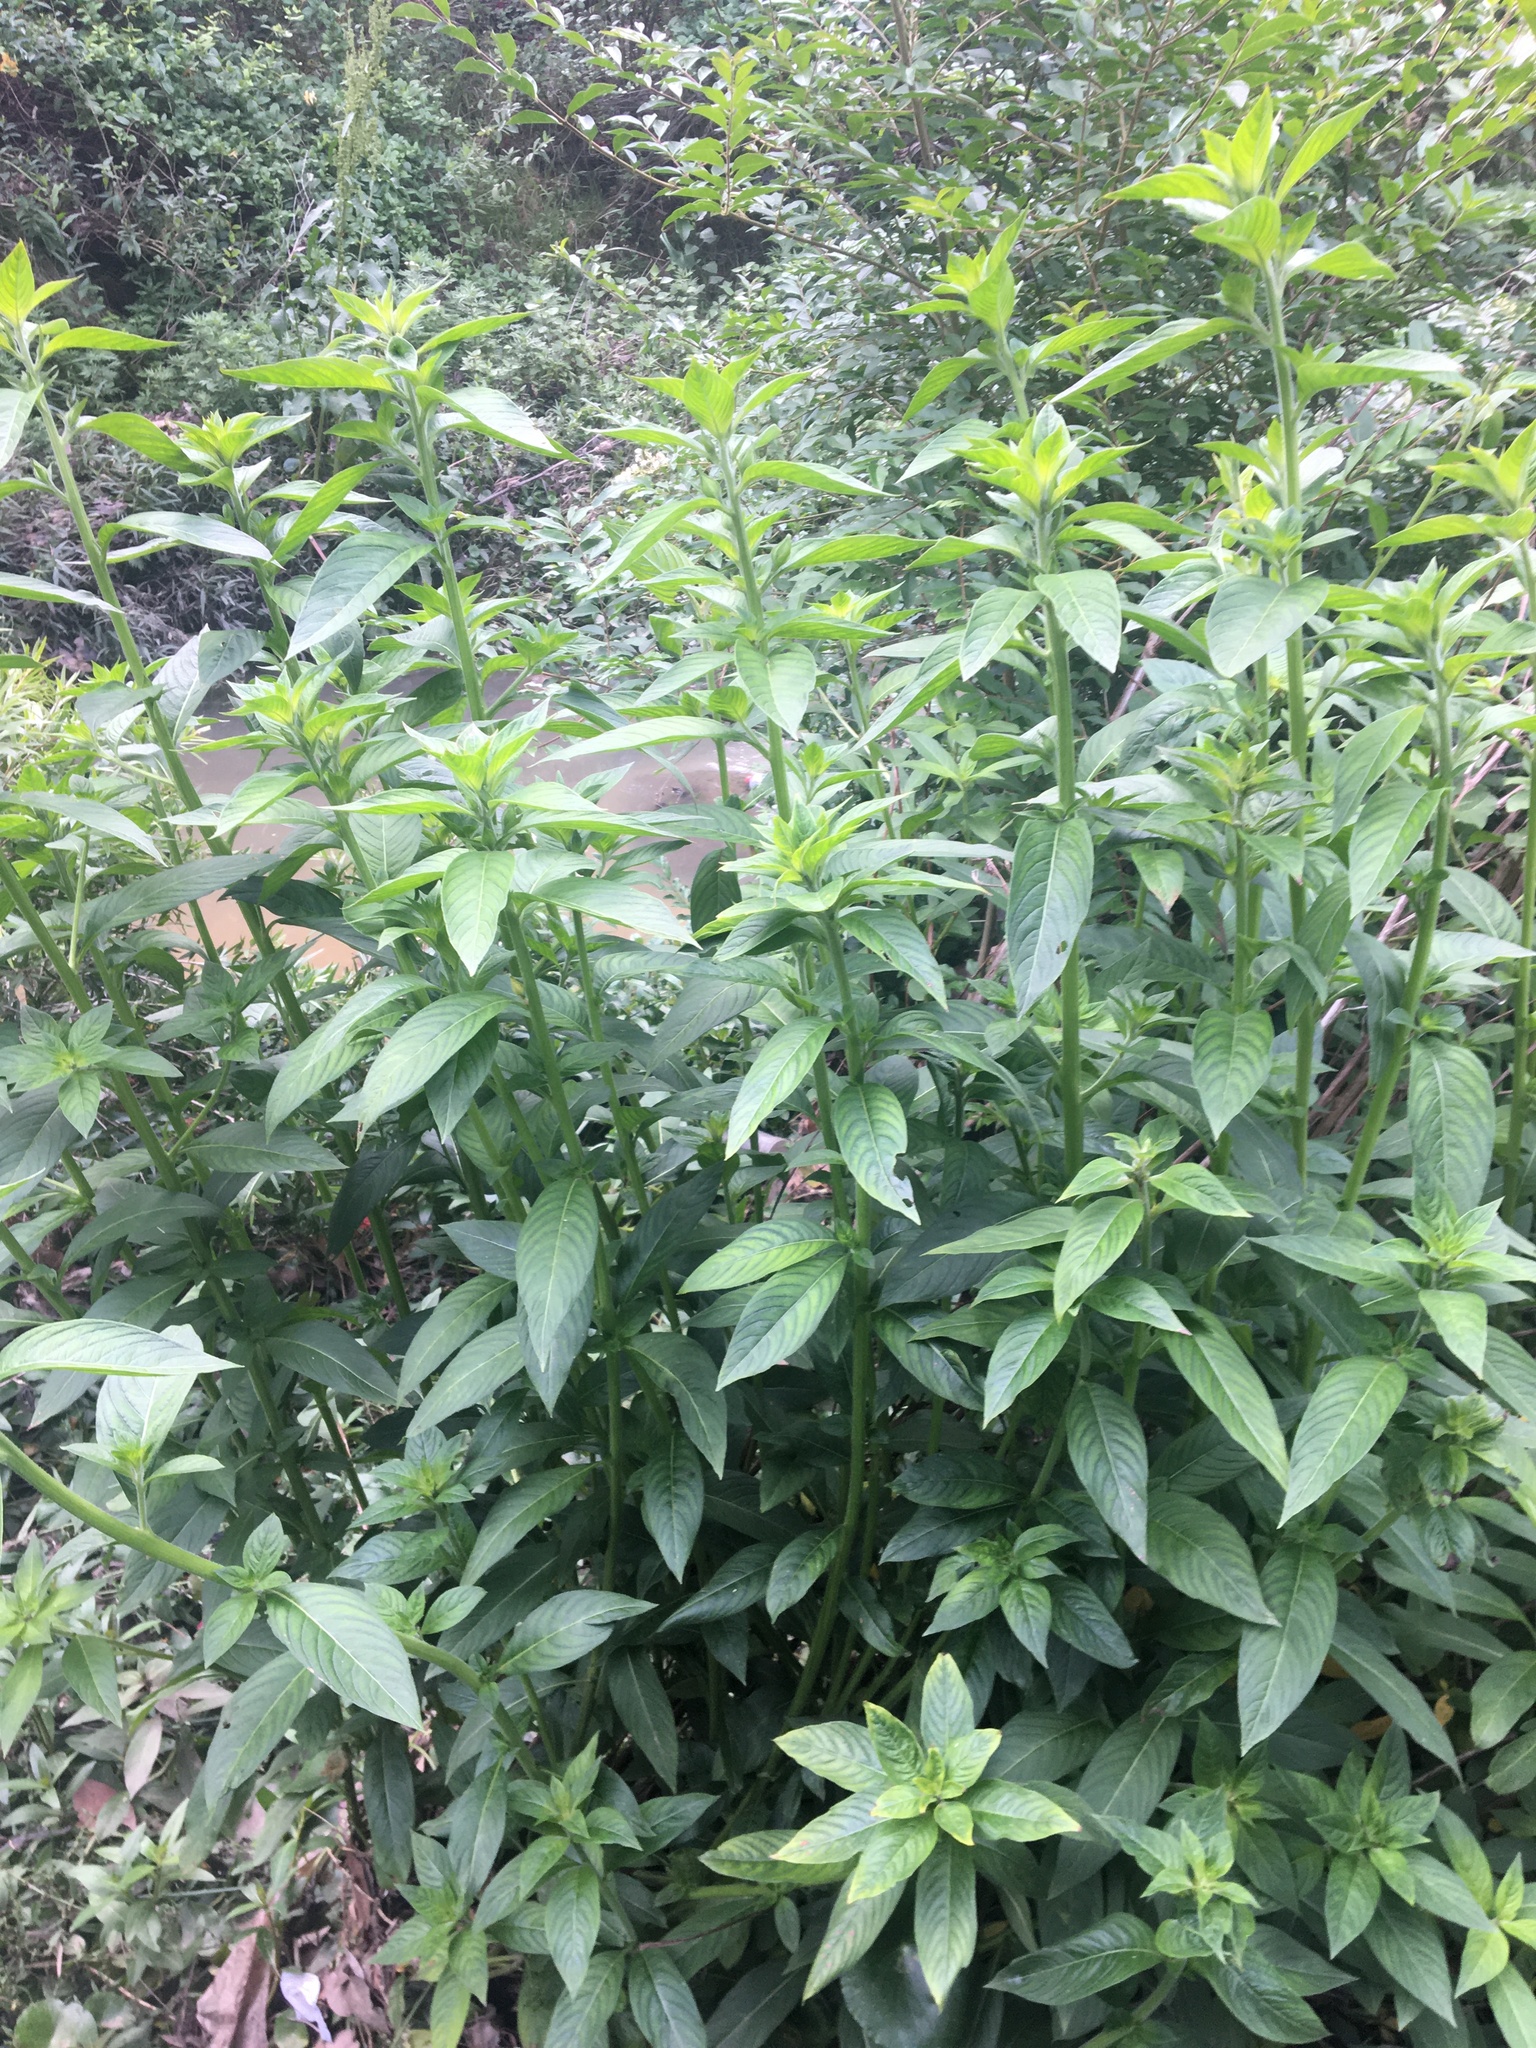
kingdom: Plantae
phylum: Tracheophyta
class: Magnoliopsida
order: Myrtales
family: Onagraceae
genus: Ludwigia
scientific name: Ludwigia peruviana
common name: Peruvian primrose-willow
